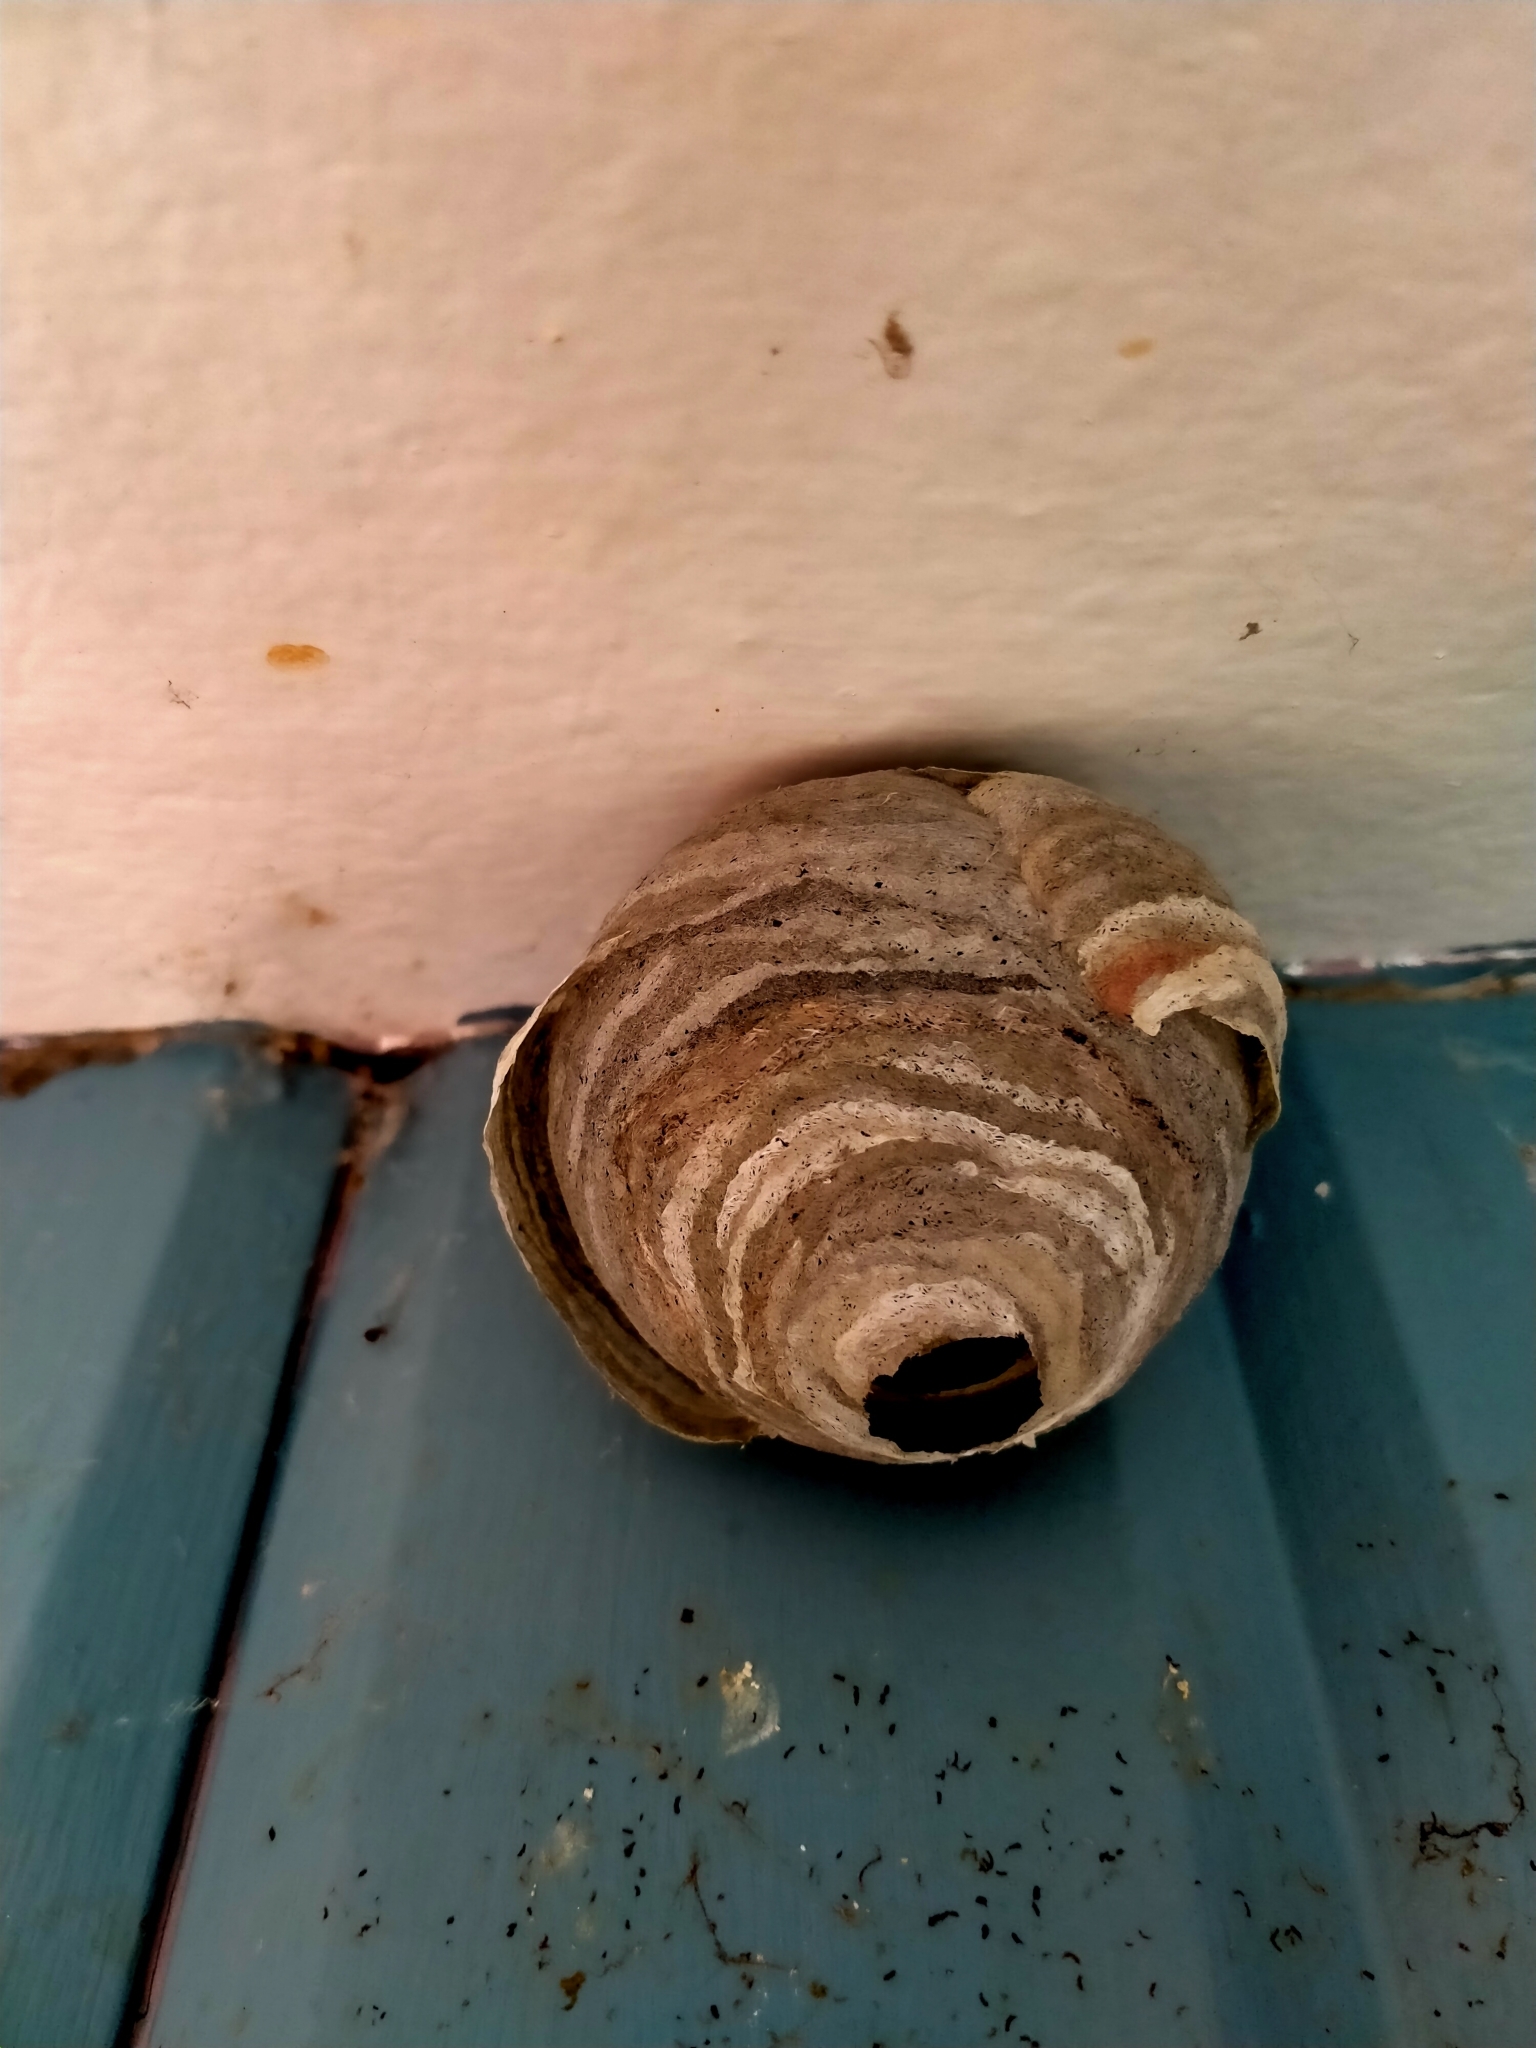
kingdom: Animalia
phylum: Arthropoda
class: Insecta
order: Hymenoptera
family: Vespidae
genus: Vespula
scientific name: Vespula vulgaris
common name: Common wasp
